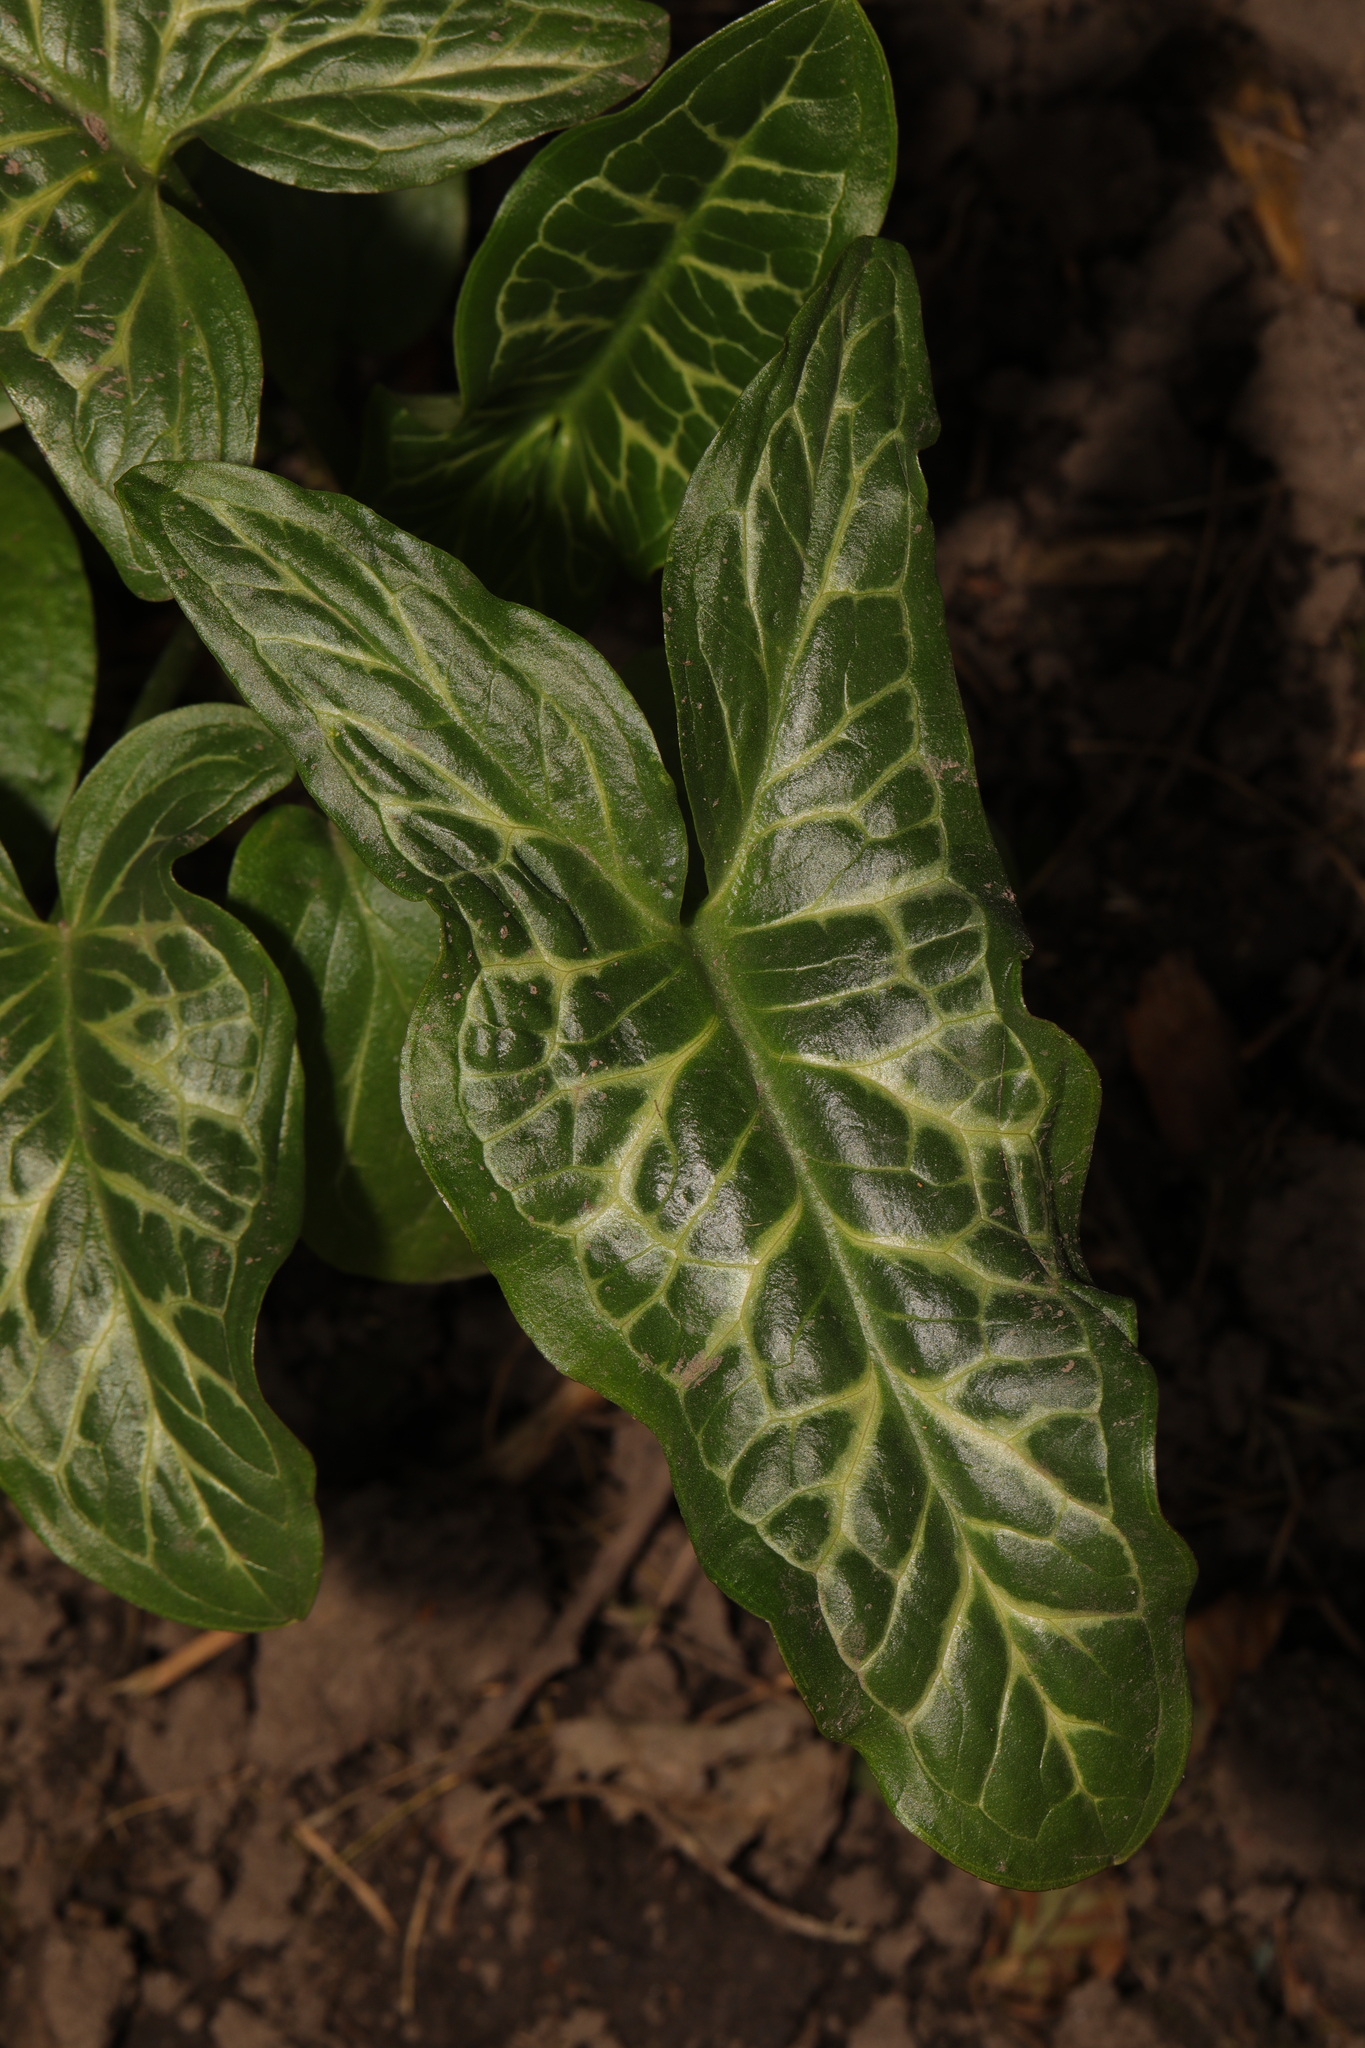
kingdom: Plantae
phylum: Tracheophyta
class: Liliopsida
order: Alismatales
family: Araceae
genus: Arum
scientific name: Arum italicum
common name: Italian lords-and-ladies
